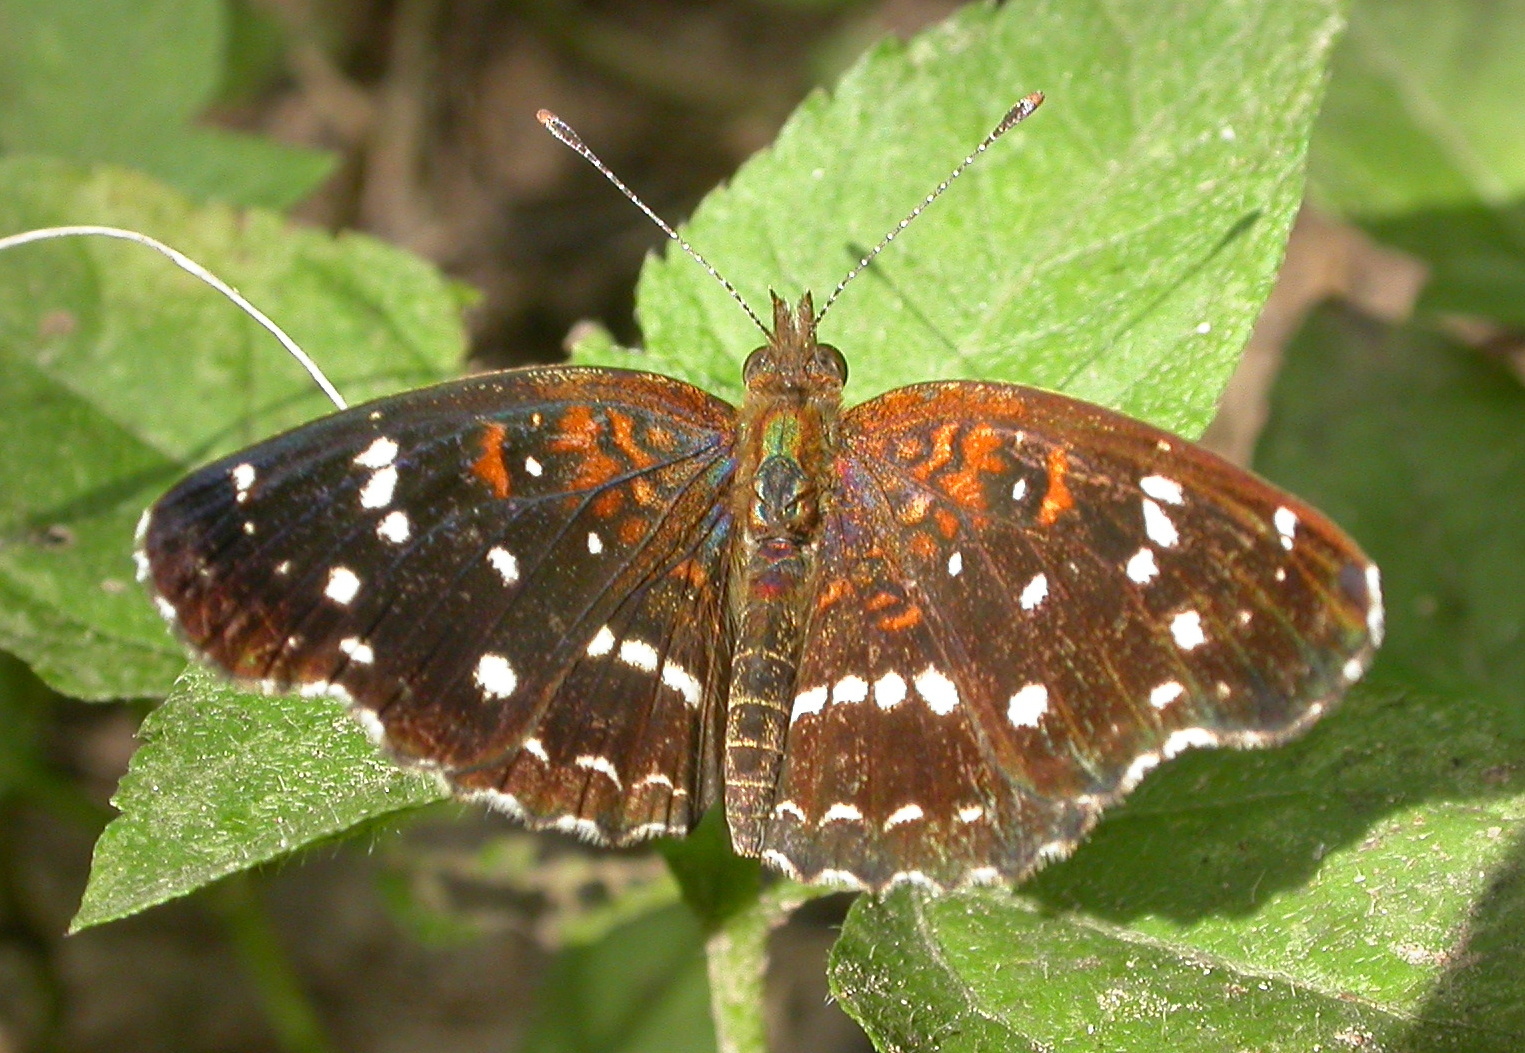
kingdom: Animalia
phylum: Arthropoda
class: Insecta
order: Lepidoptera
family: Nymphalidae
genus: Anthanassa
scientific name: Anthanassa texana
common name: Texan crescent
